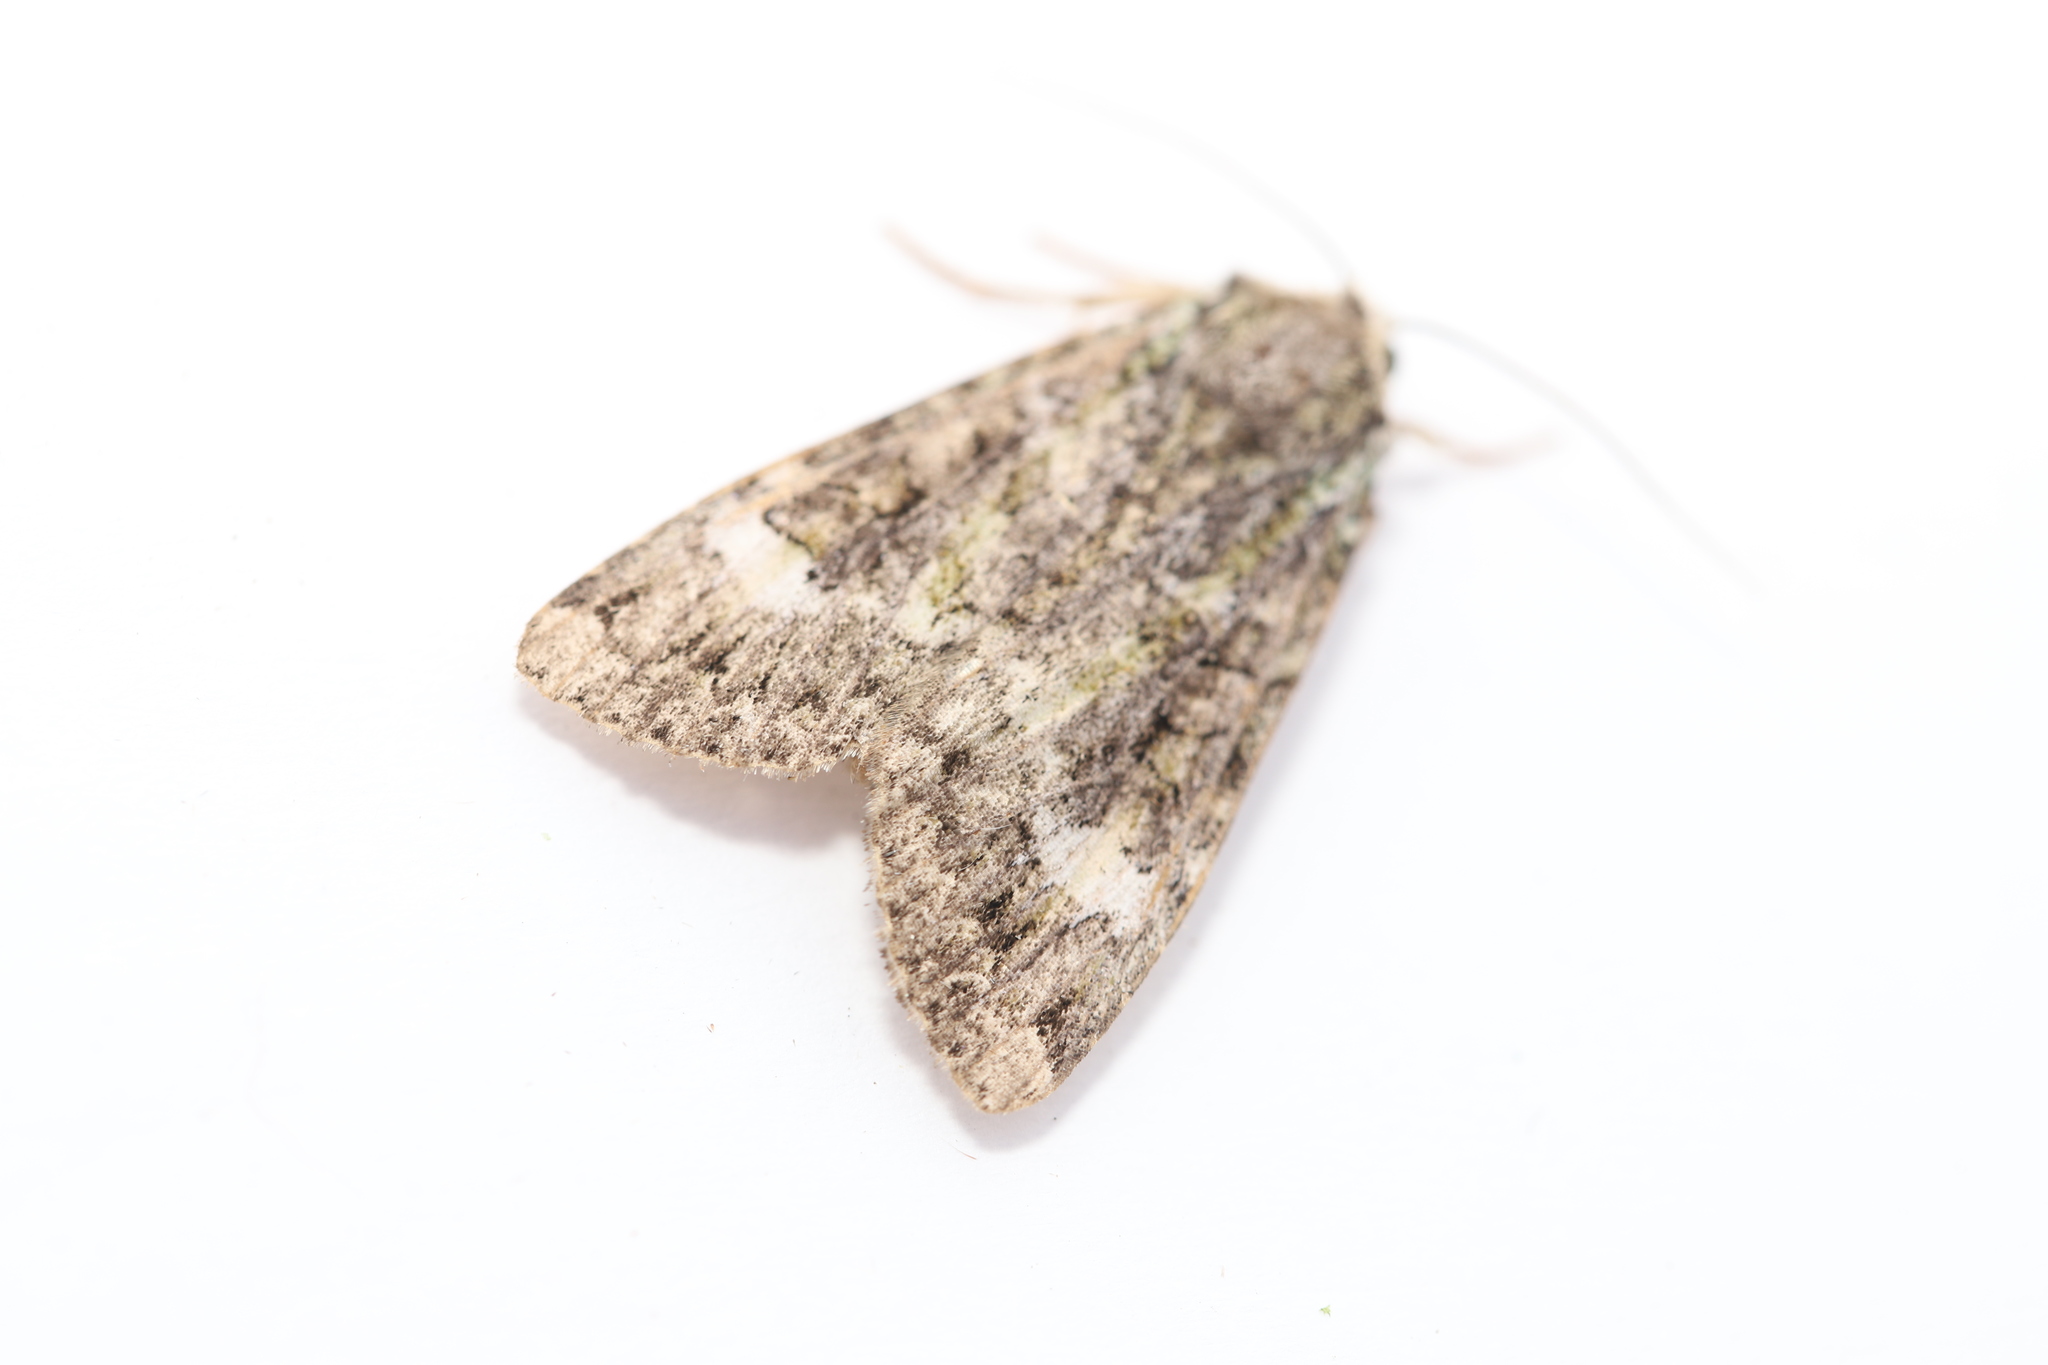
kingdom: Animalia
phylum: Arthropoda
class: Insecta
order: Lepidoptera
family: Noctuidae
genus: Anaplectoides
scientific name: Anaplectoides prasina
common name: Green arches
